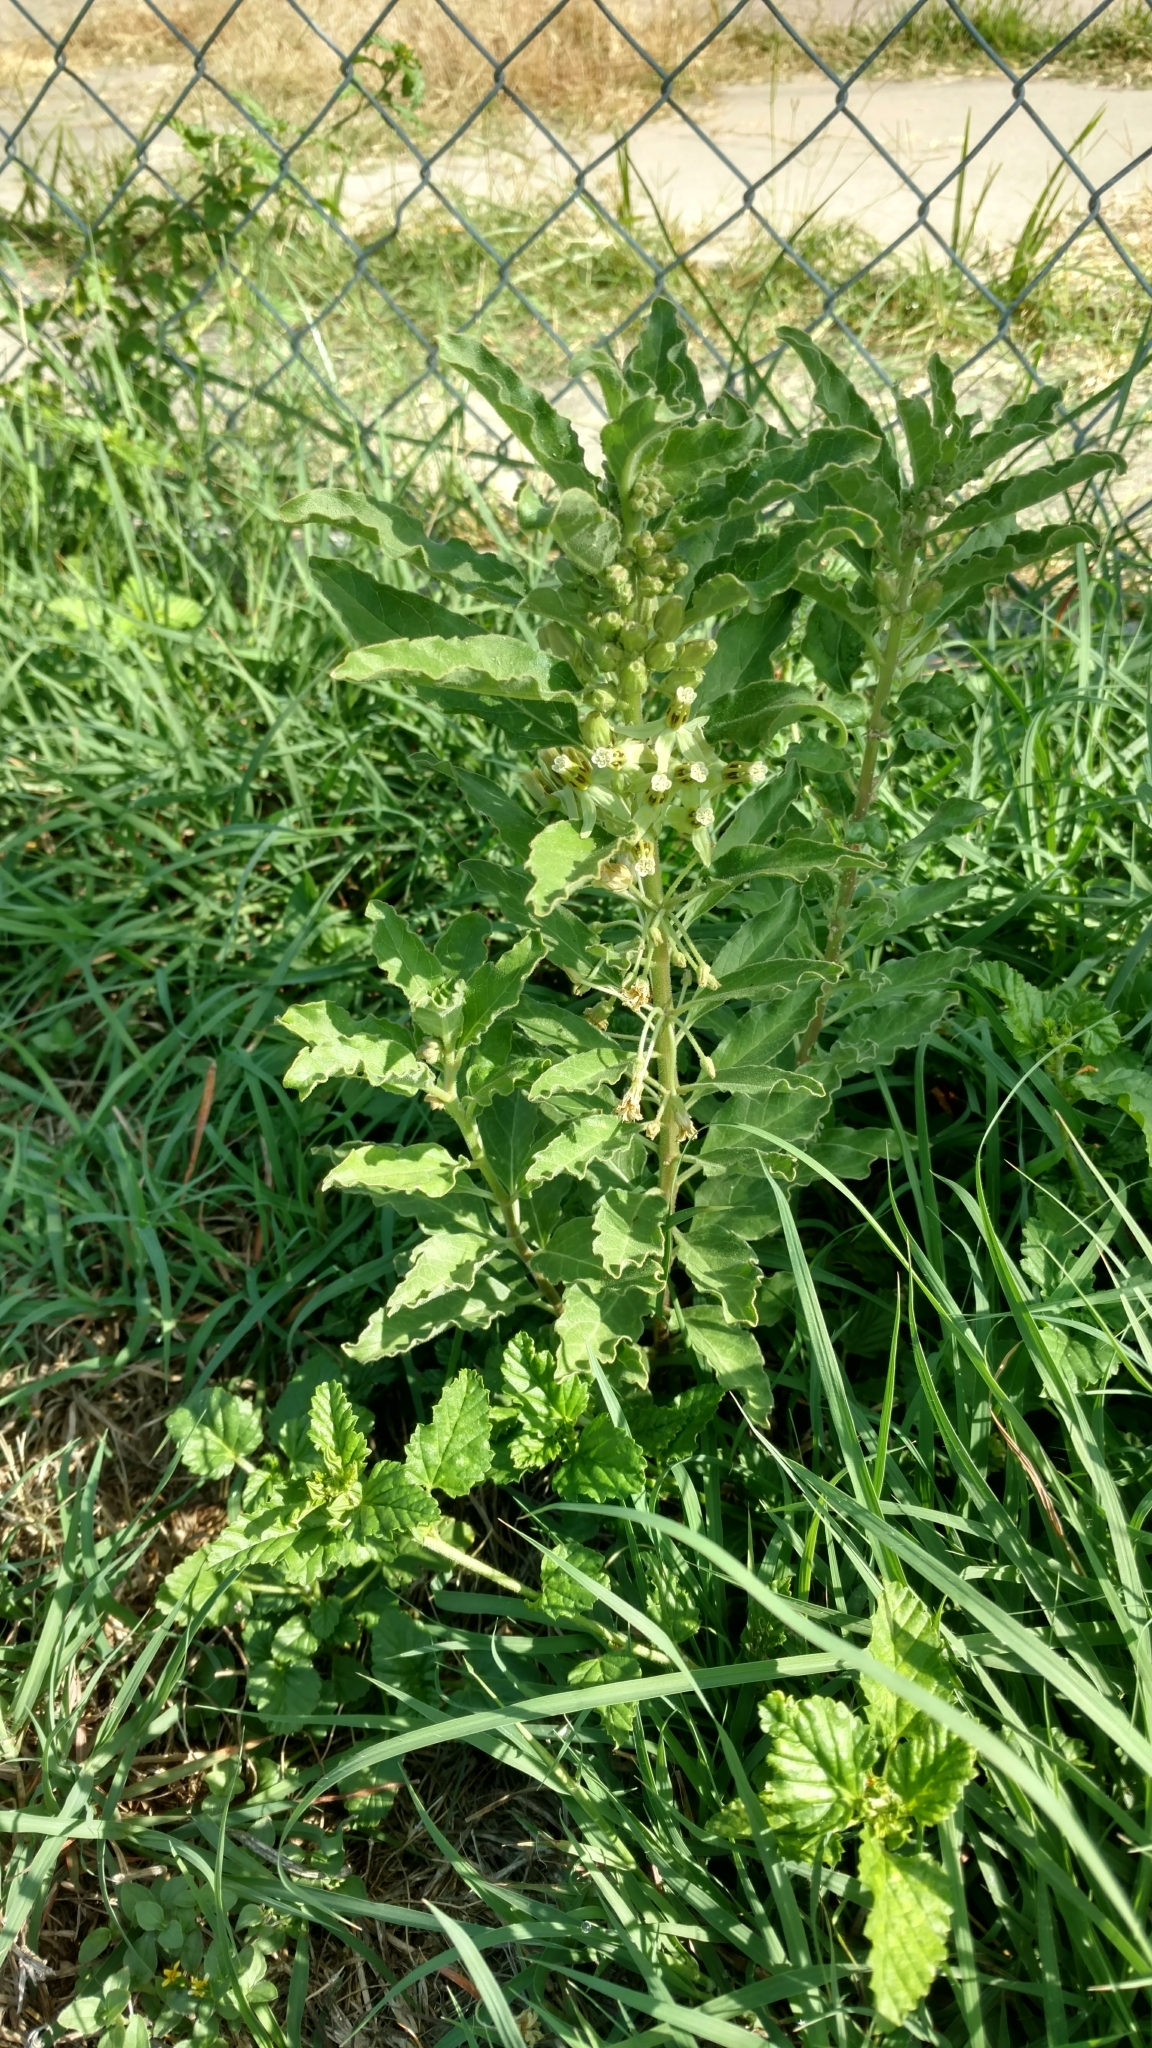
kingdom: Plantae
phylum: Tracheophyta
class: Magnoliopsida
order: Gentianales
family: Apocynaceae
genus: Asclepias
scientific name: Asclepias oenotheroides
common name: Zizotes milkweed
